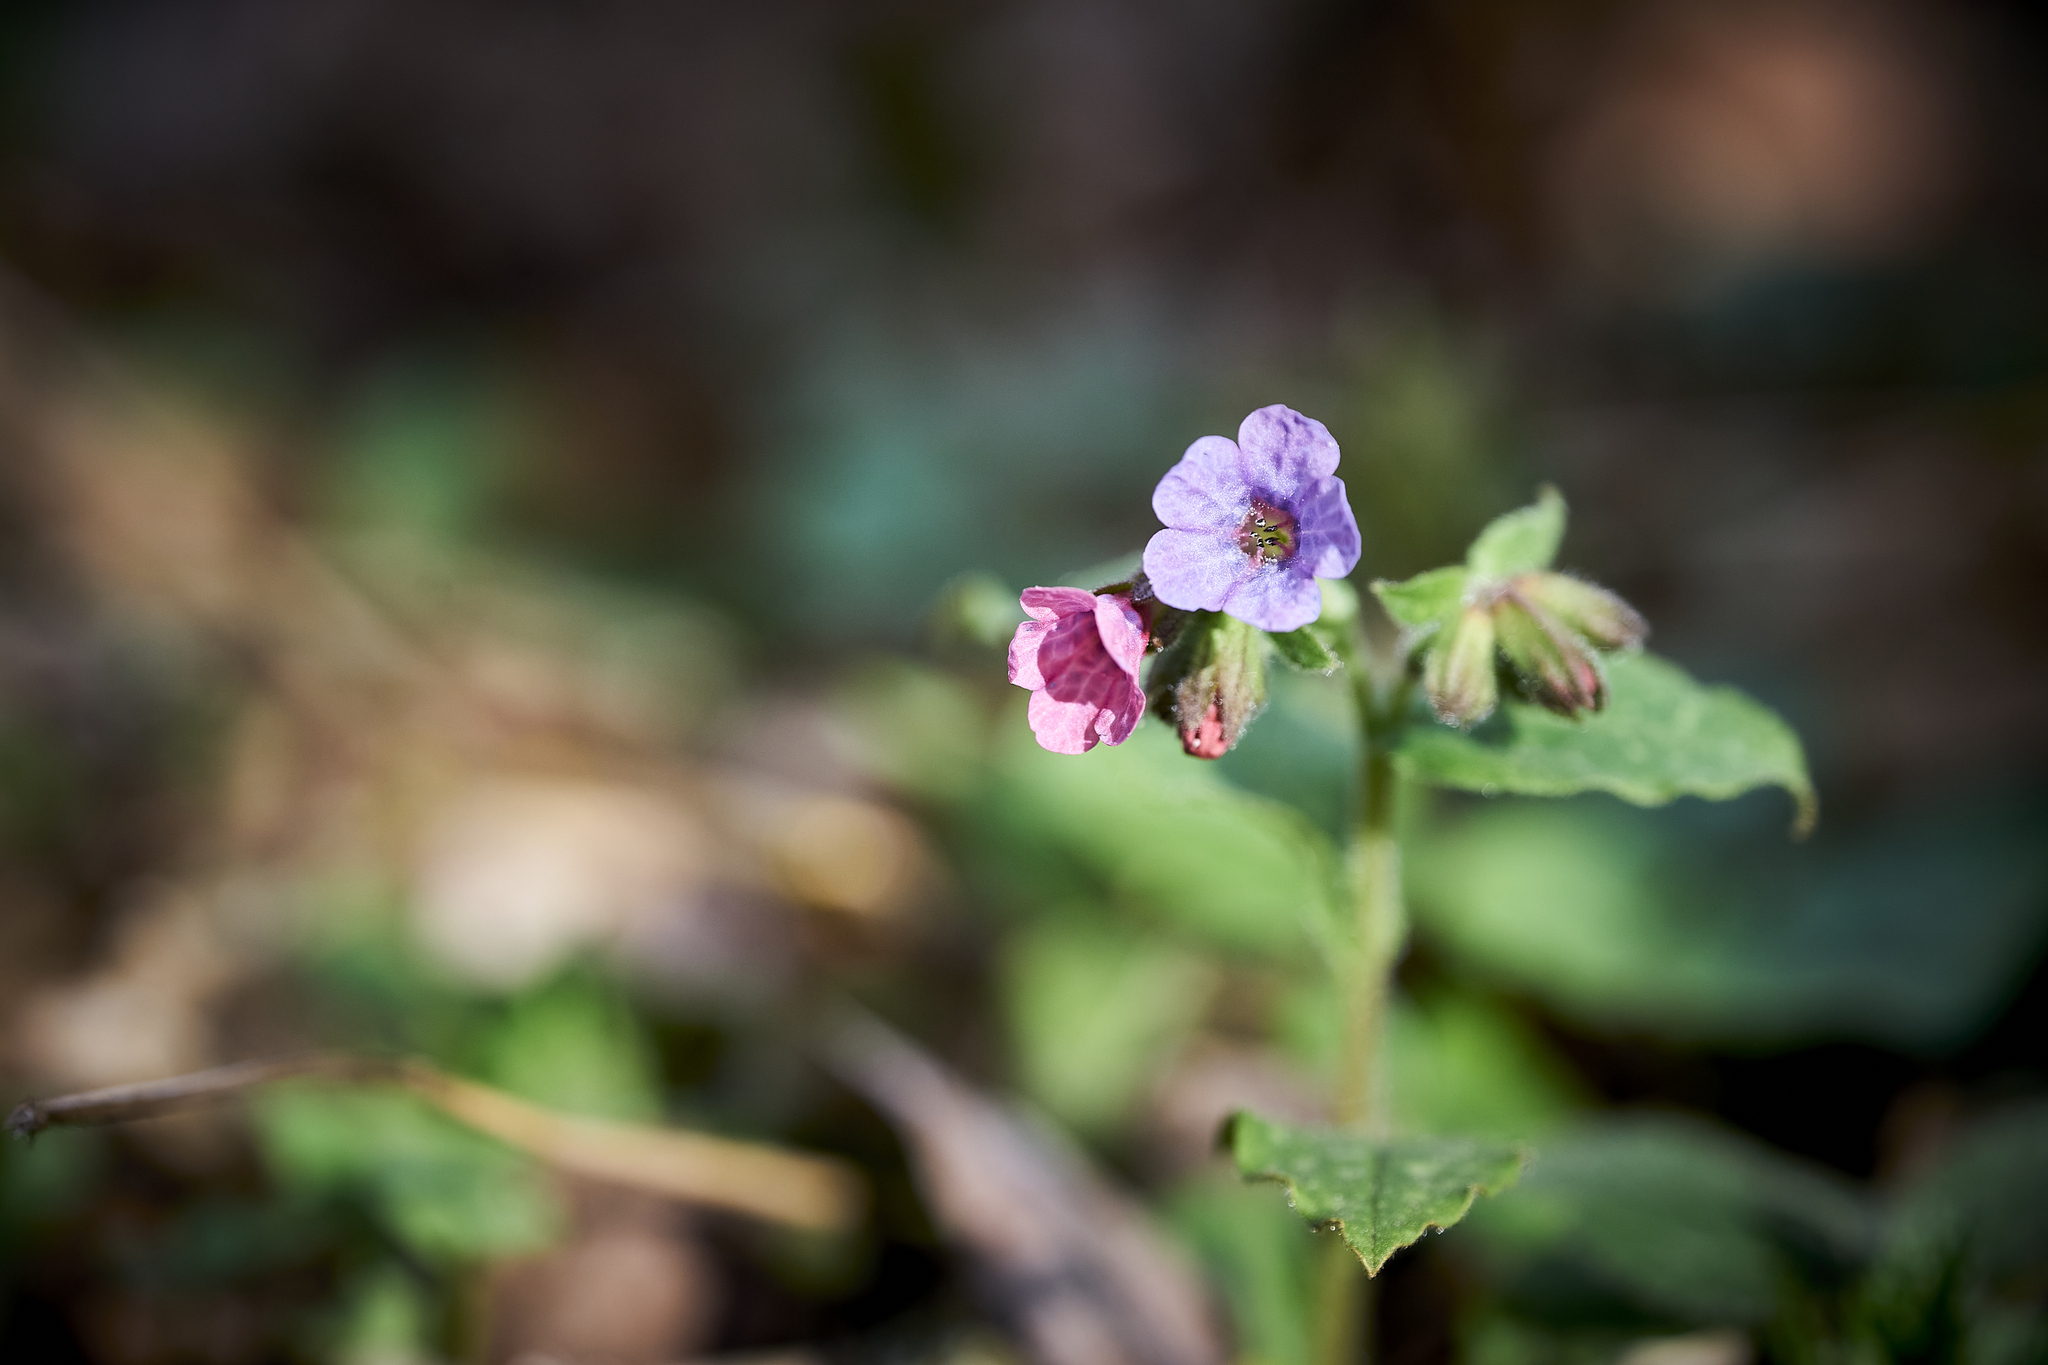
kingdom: Plantae
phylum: Tracheophyta
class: Magnoliopsida
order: Boraginales
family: Boraginaceae
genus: Pulmonaria
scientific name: Pulmonaria officinalis
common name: Lungwort
